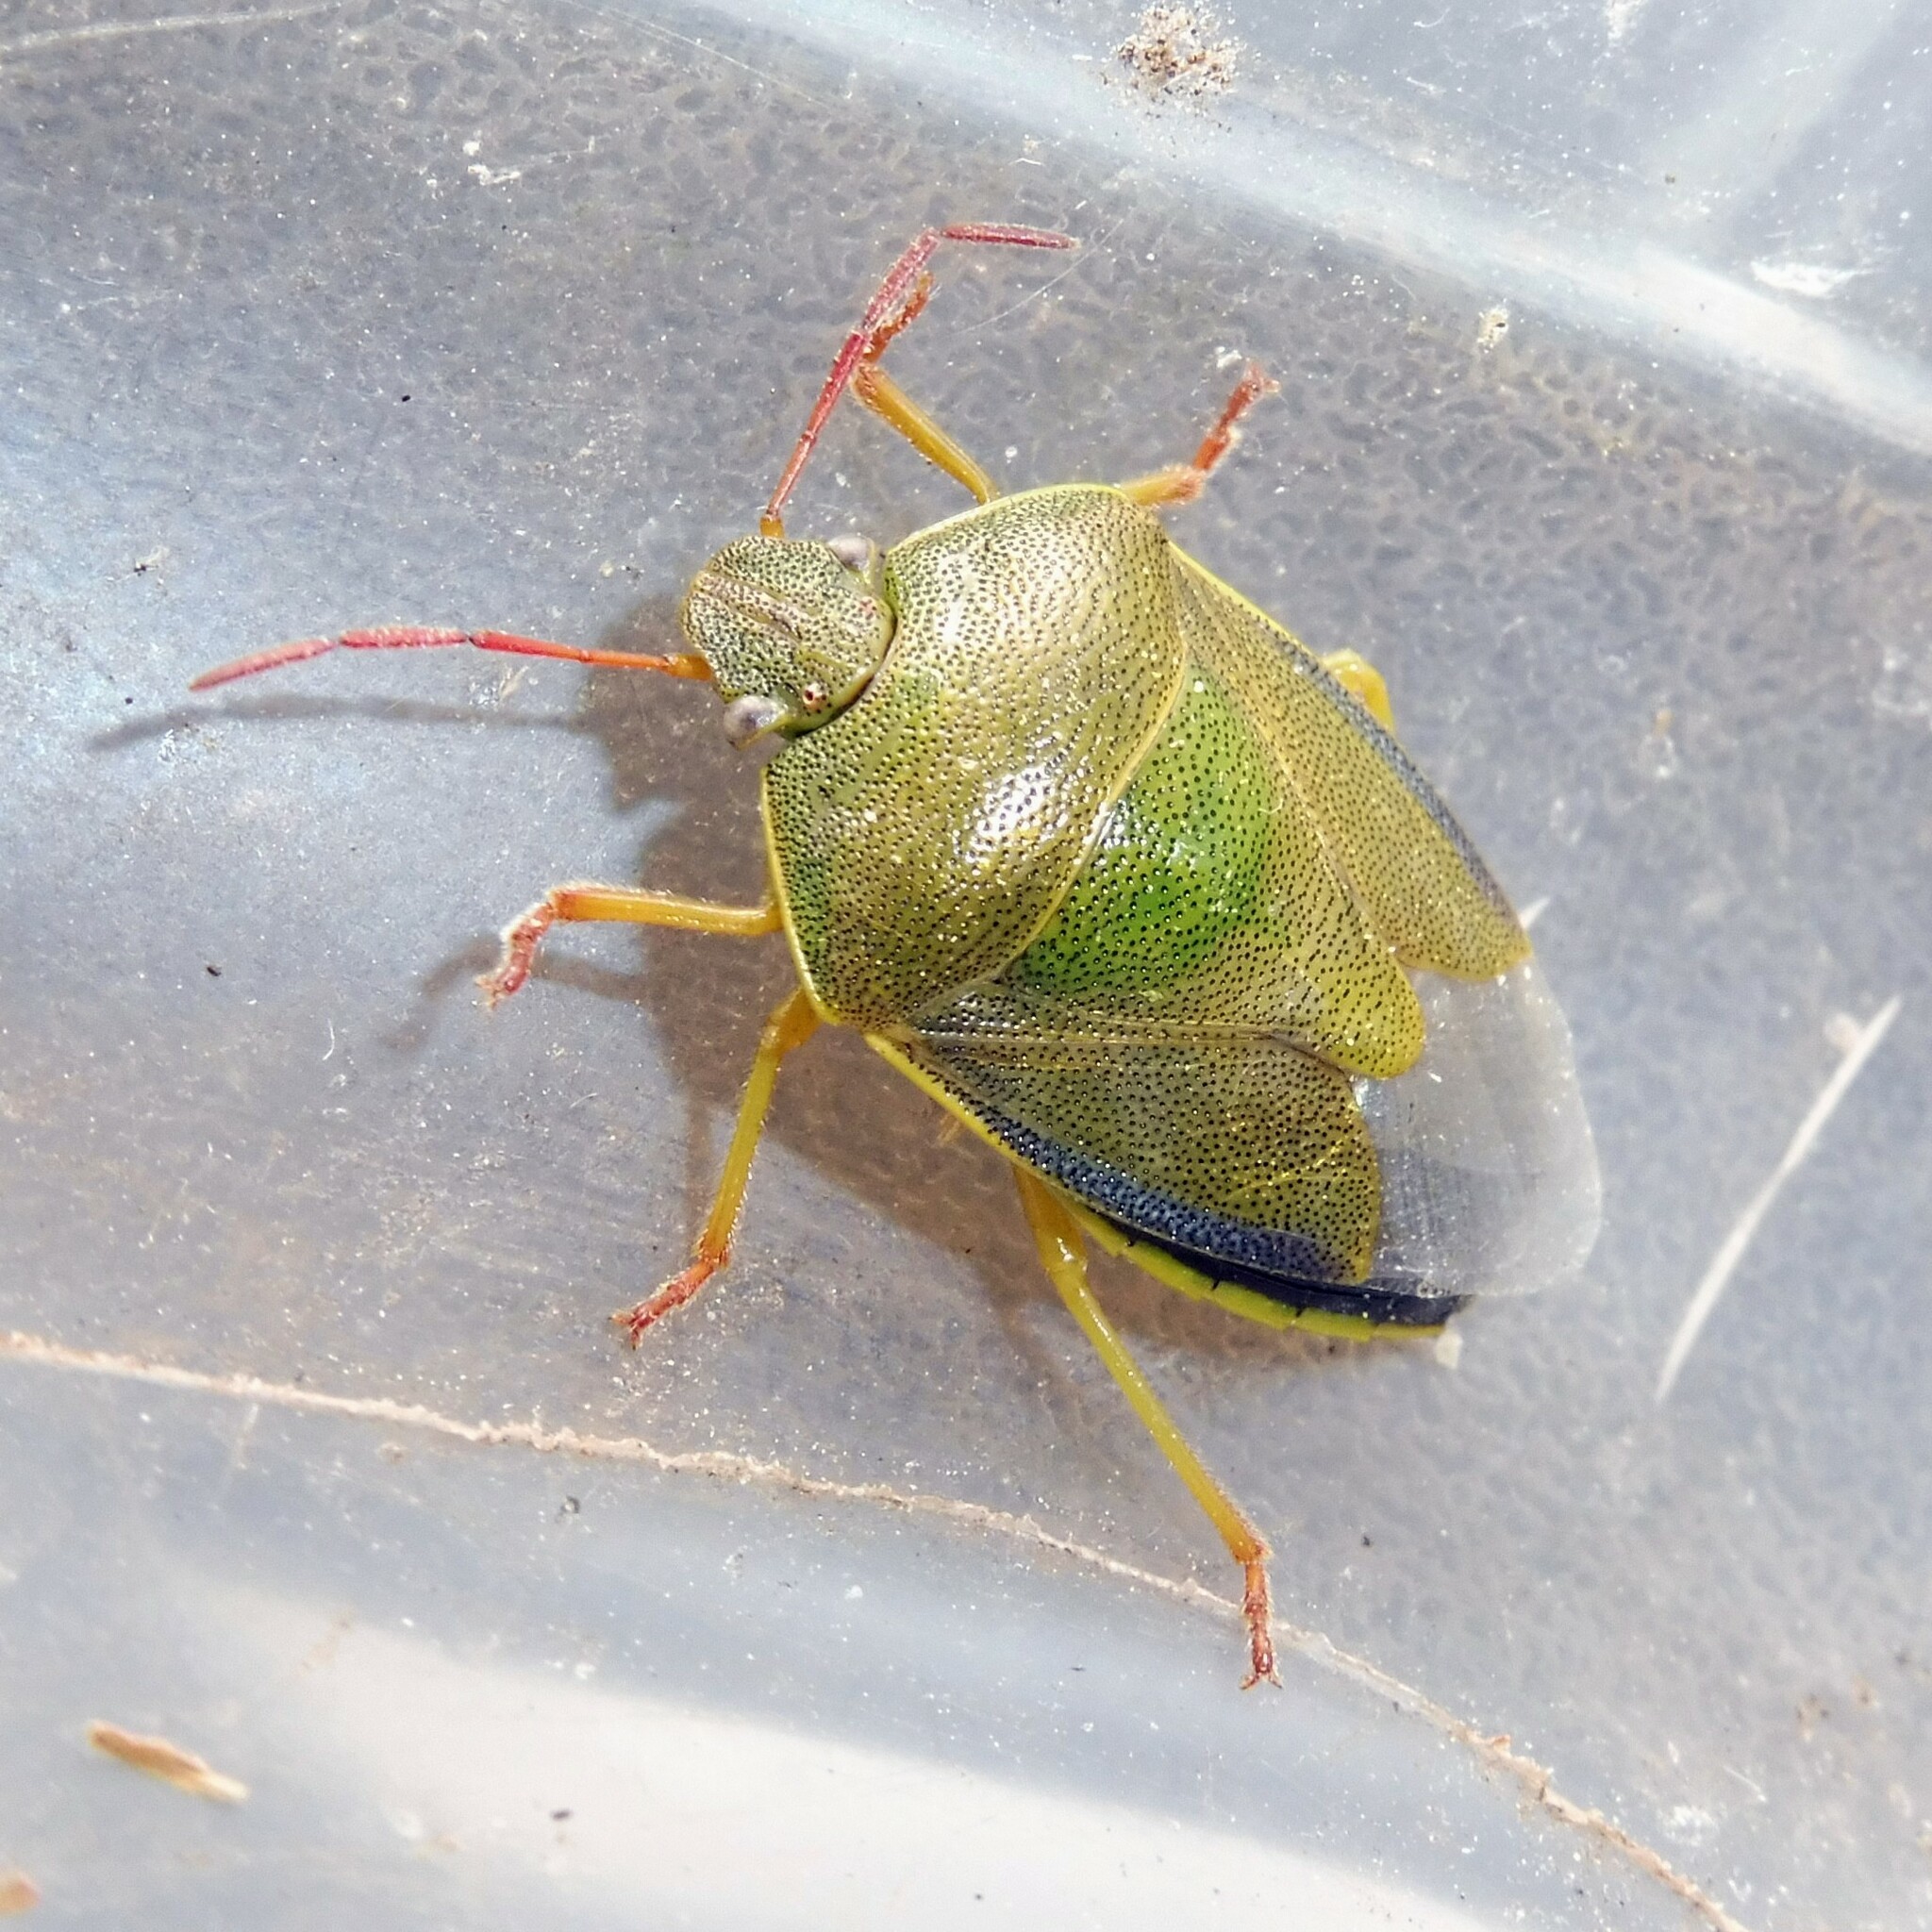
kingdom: Animalia
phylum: Arthropoda
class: Insecta
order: Hemiptera
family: Pentatomidae
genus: Piezodorus
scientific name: Piezodorus lituratus
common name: Stink bug
